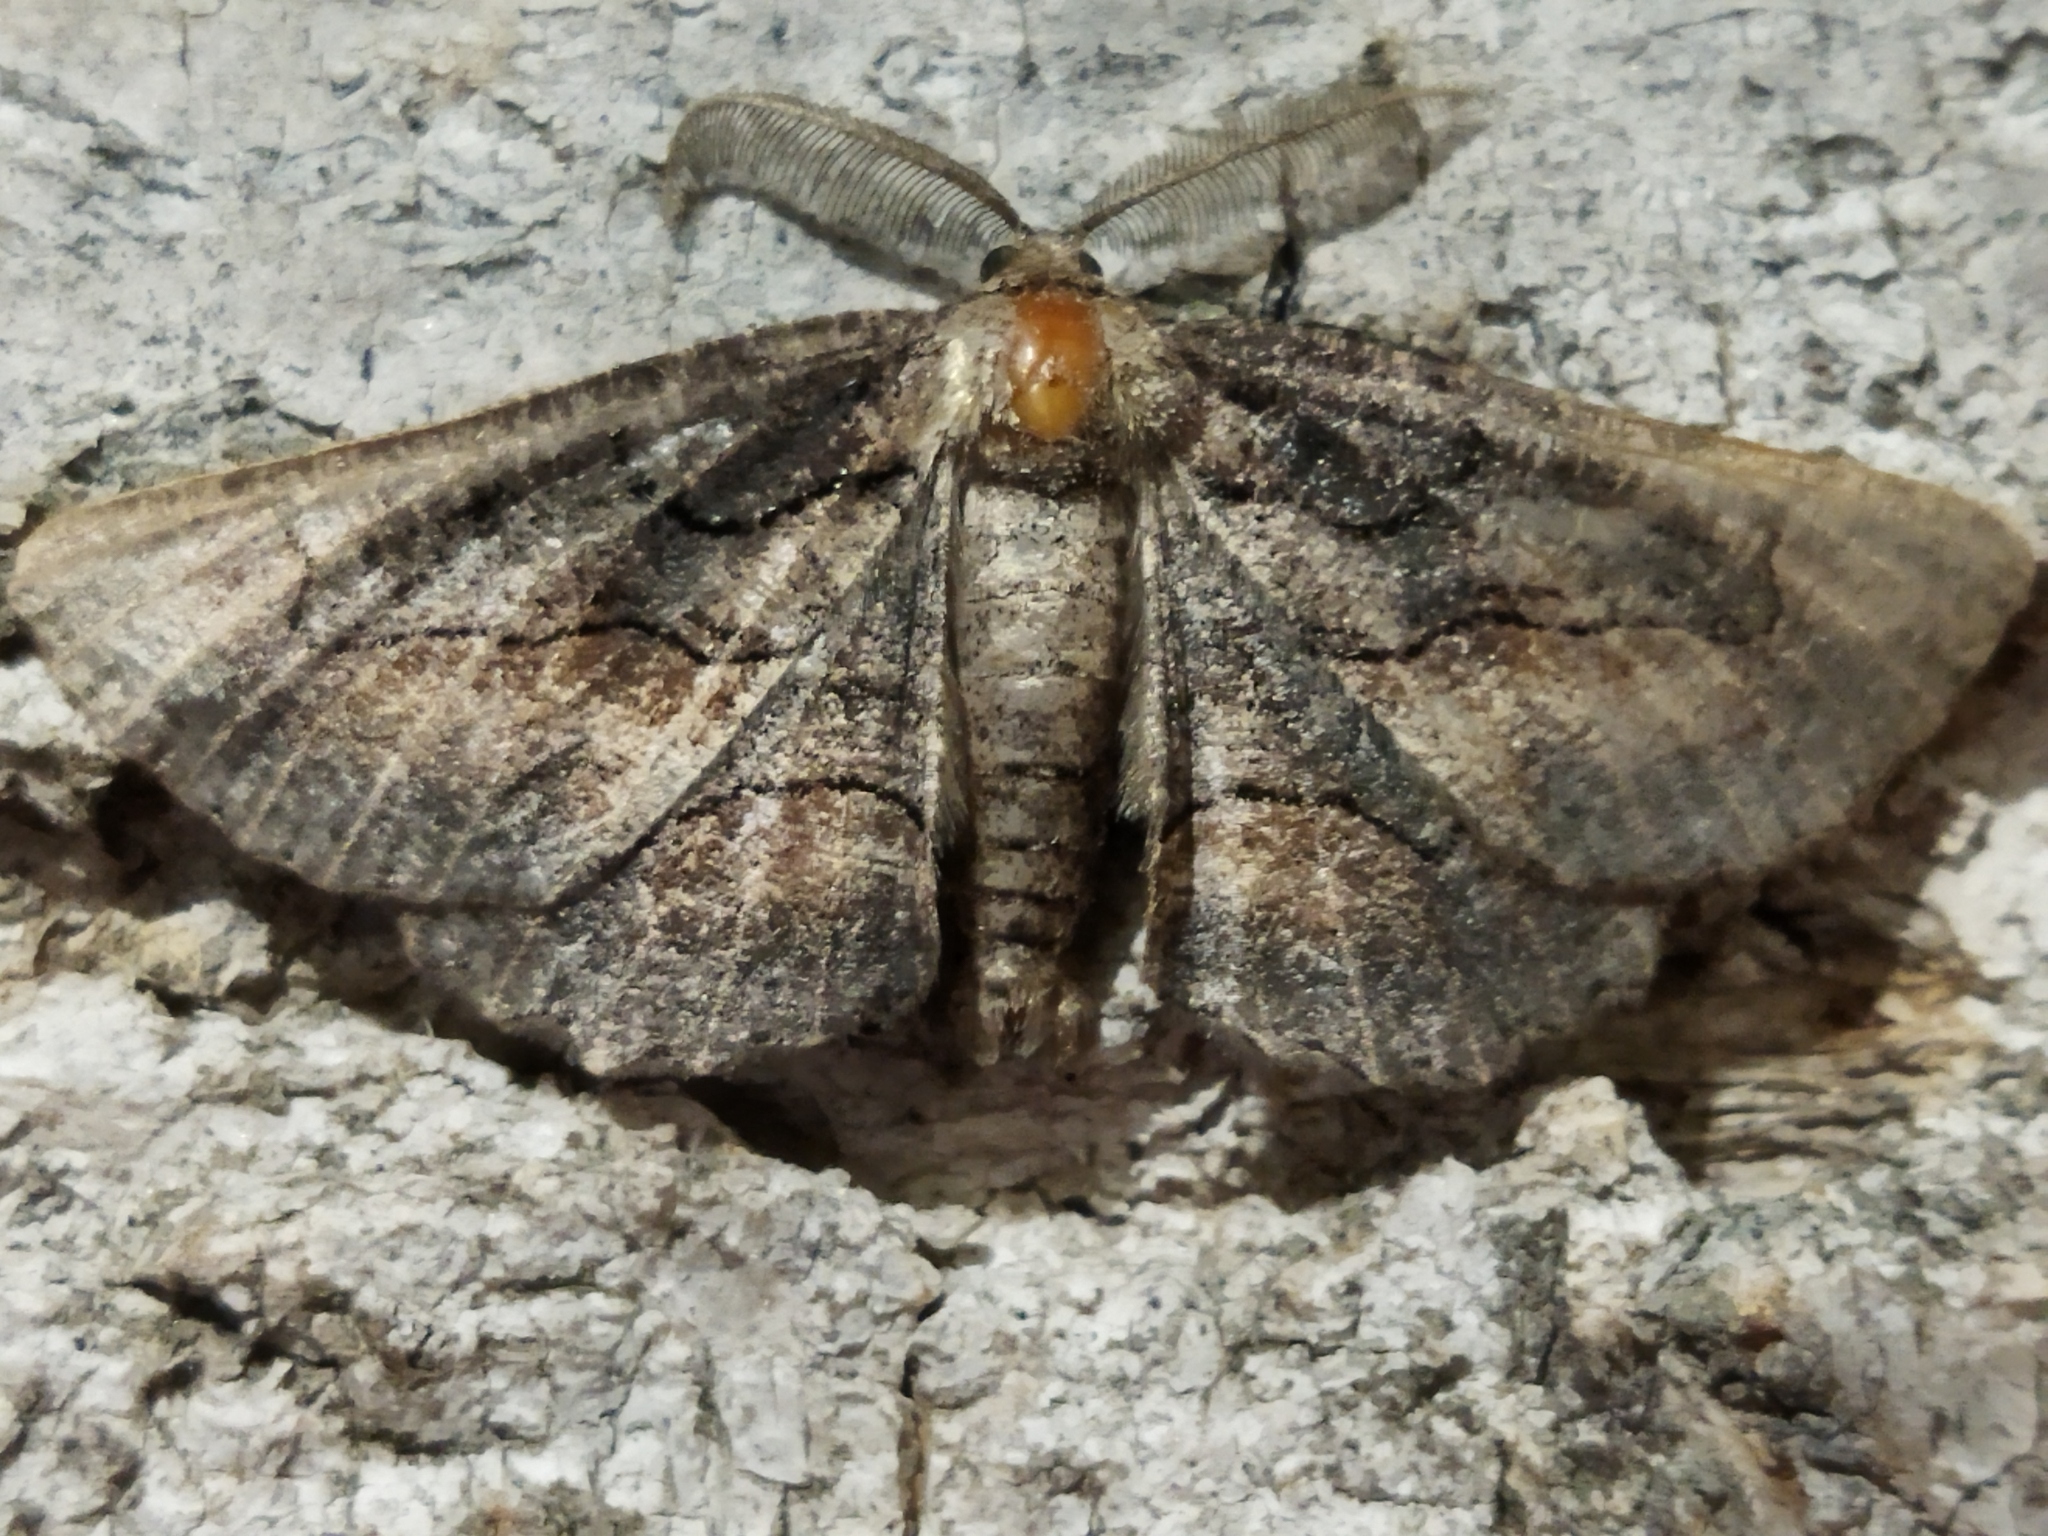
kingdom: Animalia
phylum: Arthropoda
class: Insecta
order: Lepidoptera
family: Geometridae
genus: Nychiodes
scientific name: Nychiodes waltheri
